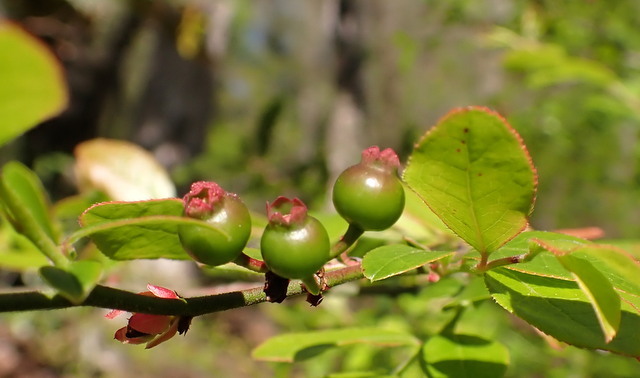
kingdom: Plantae
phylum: Tracheophyta
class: Magnoliopsida
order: Ericales
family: Ericaceae
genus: Vaccinium
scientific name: Vaccinium corymbosum
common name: Blueberry
